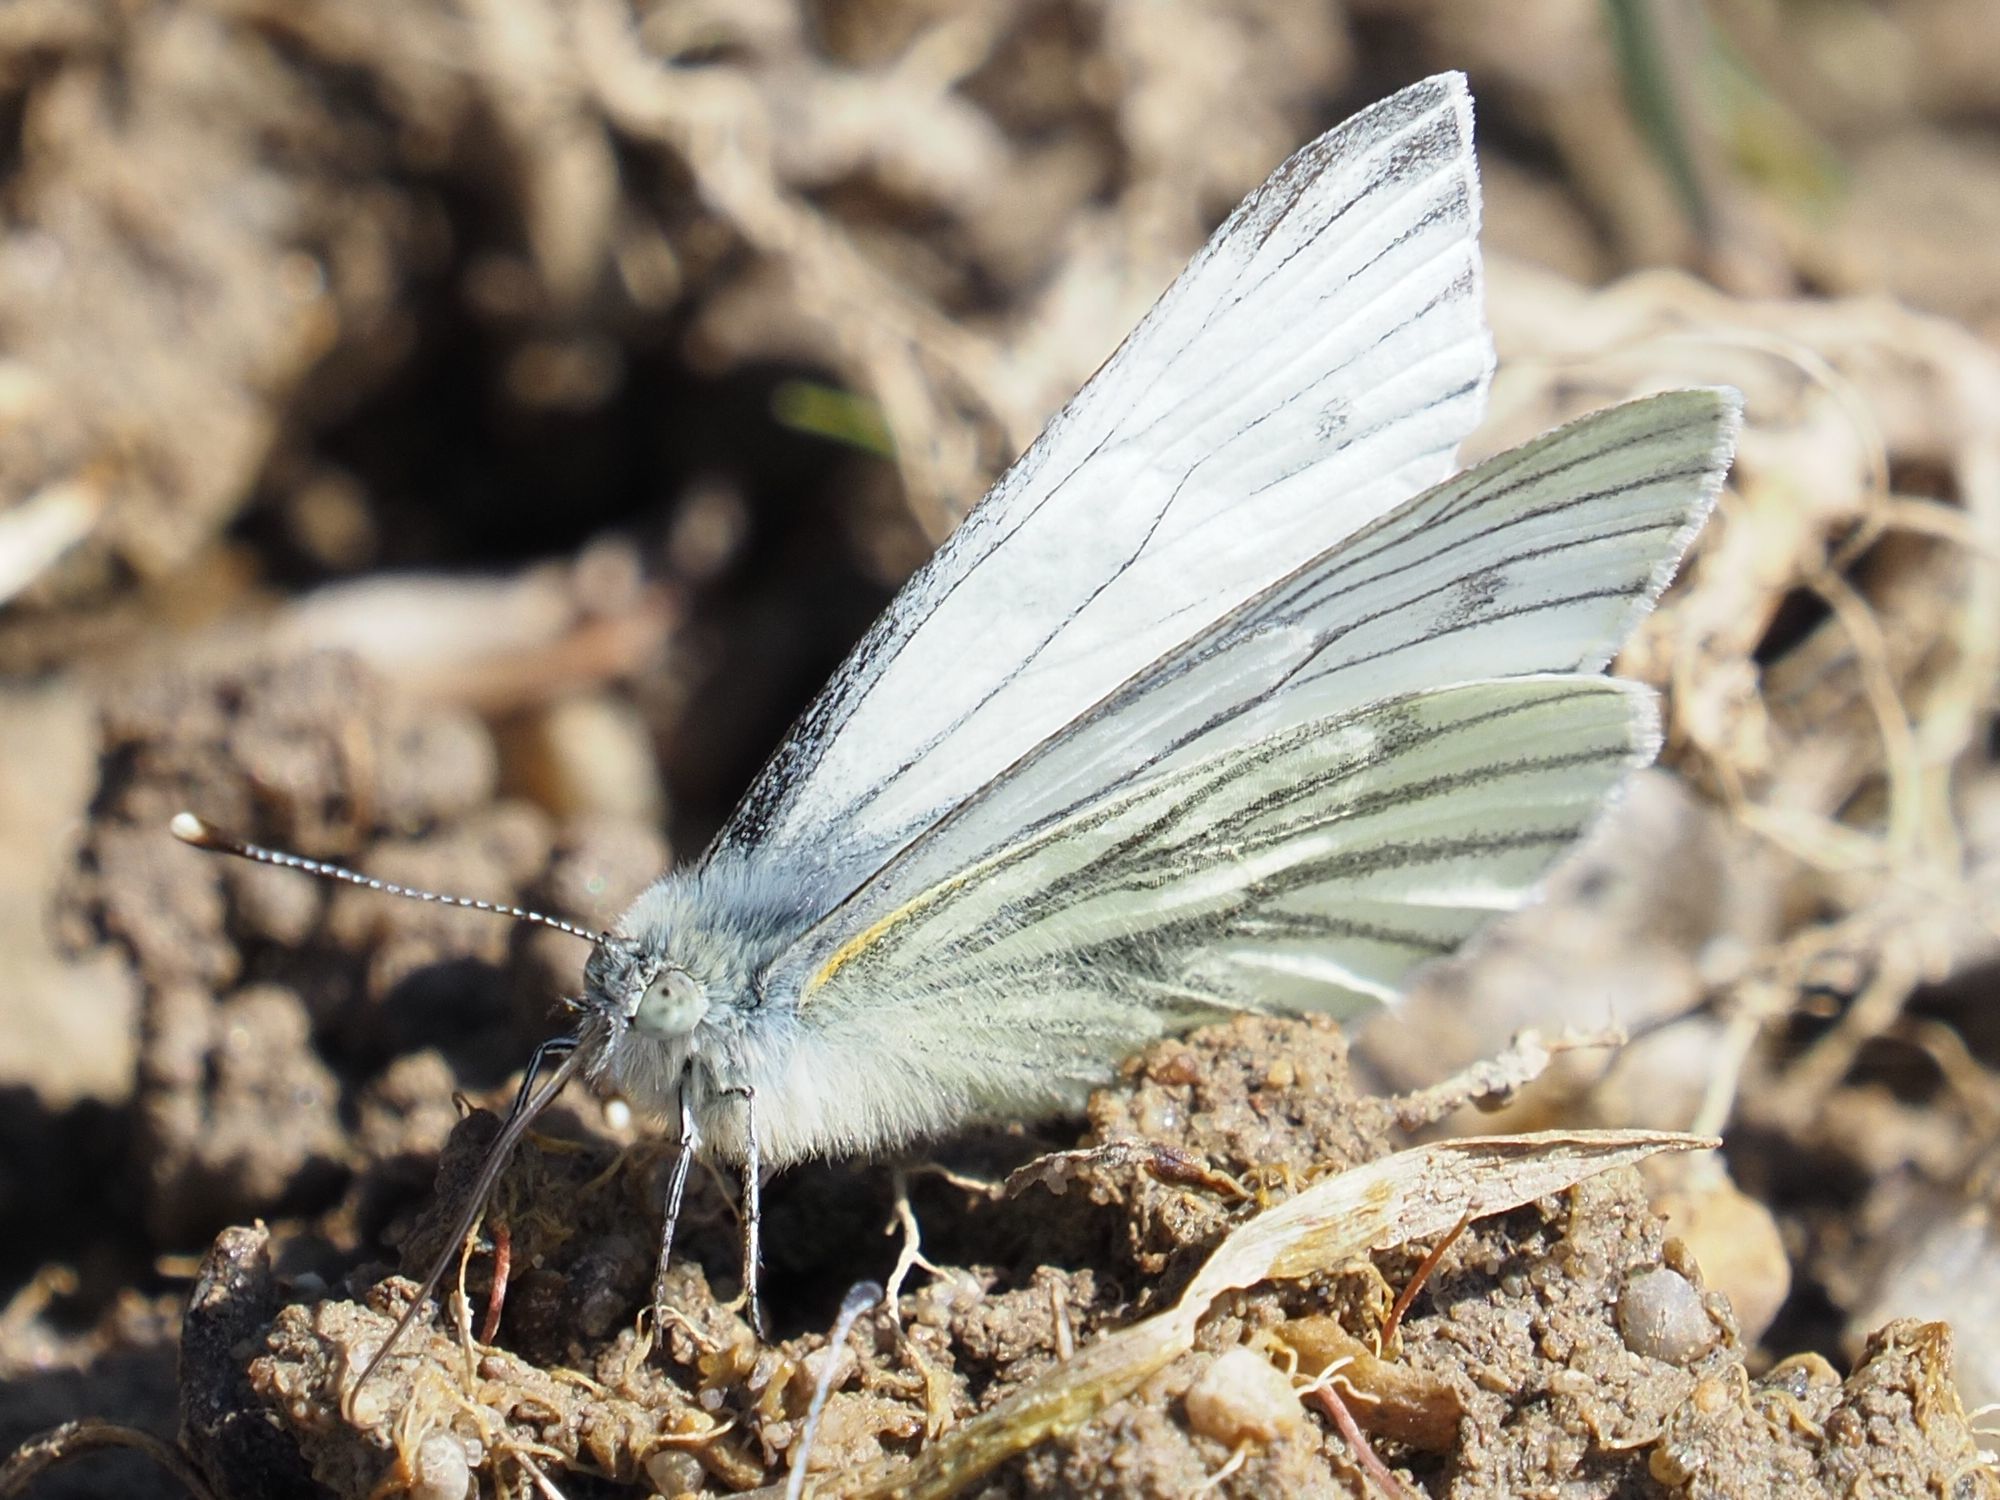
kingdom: Animalia
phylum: Arthropoda
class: Insecta
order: Lepidoptera
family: Pieridae
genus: Pieris
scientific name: Pieris napi
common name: Green-veined white
